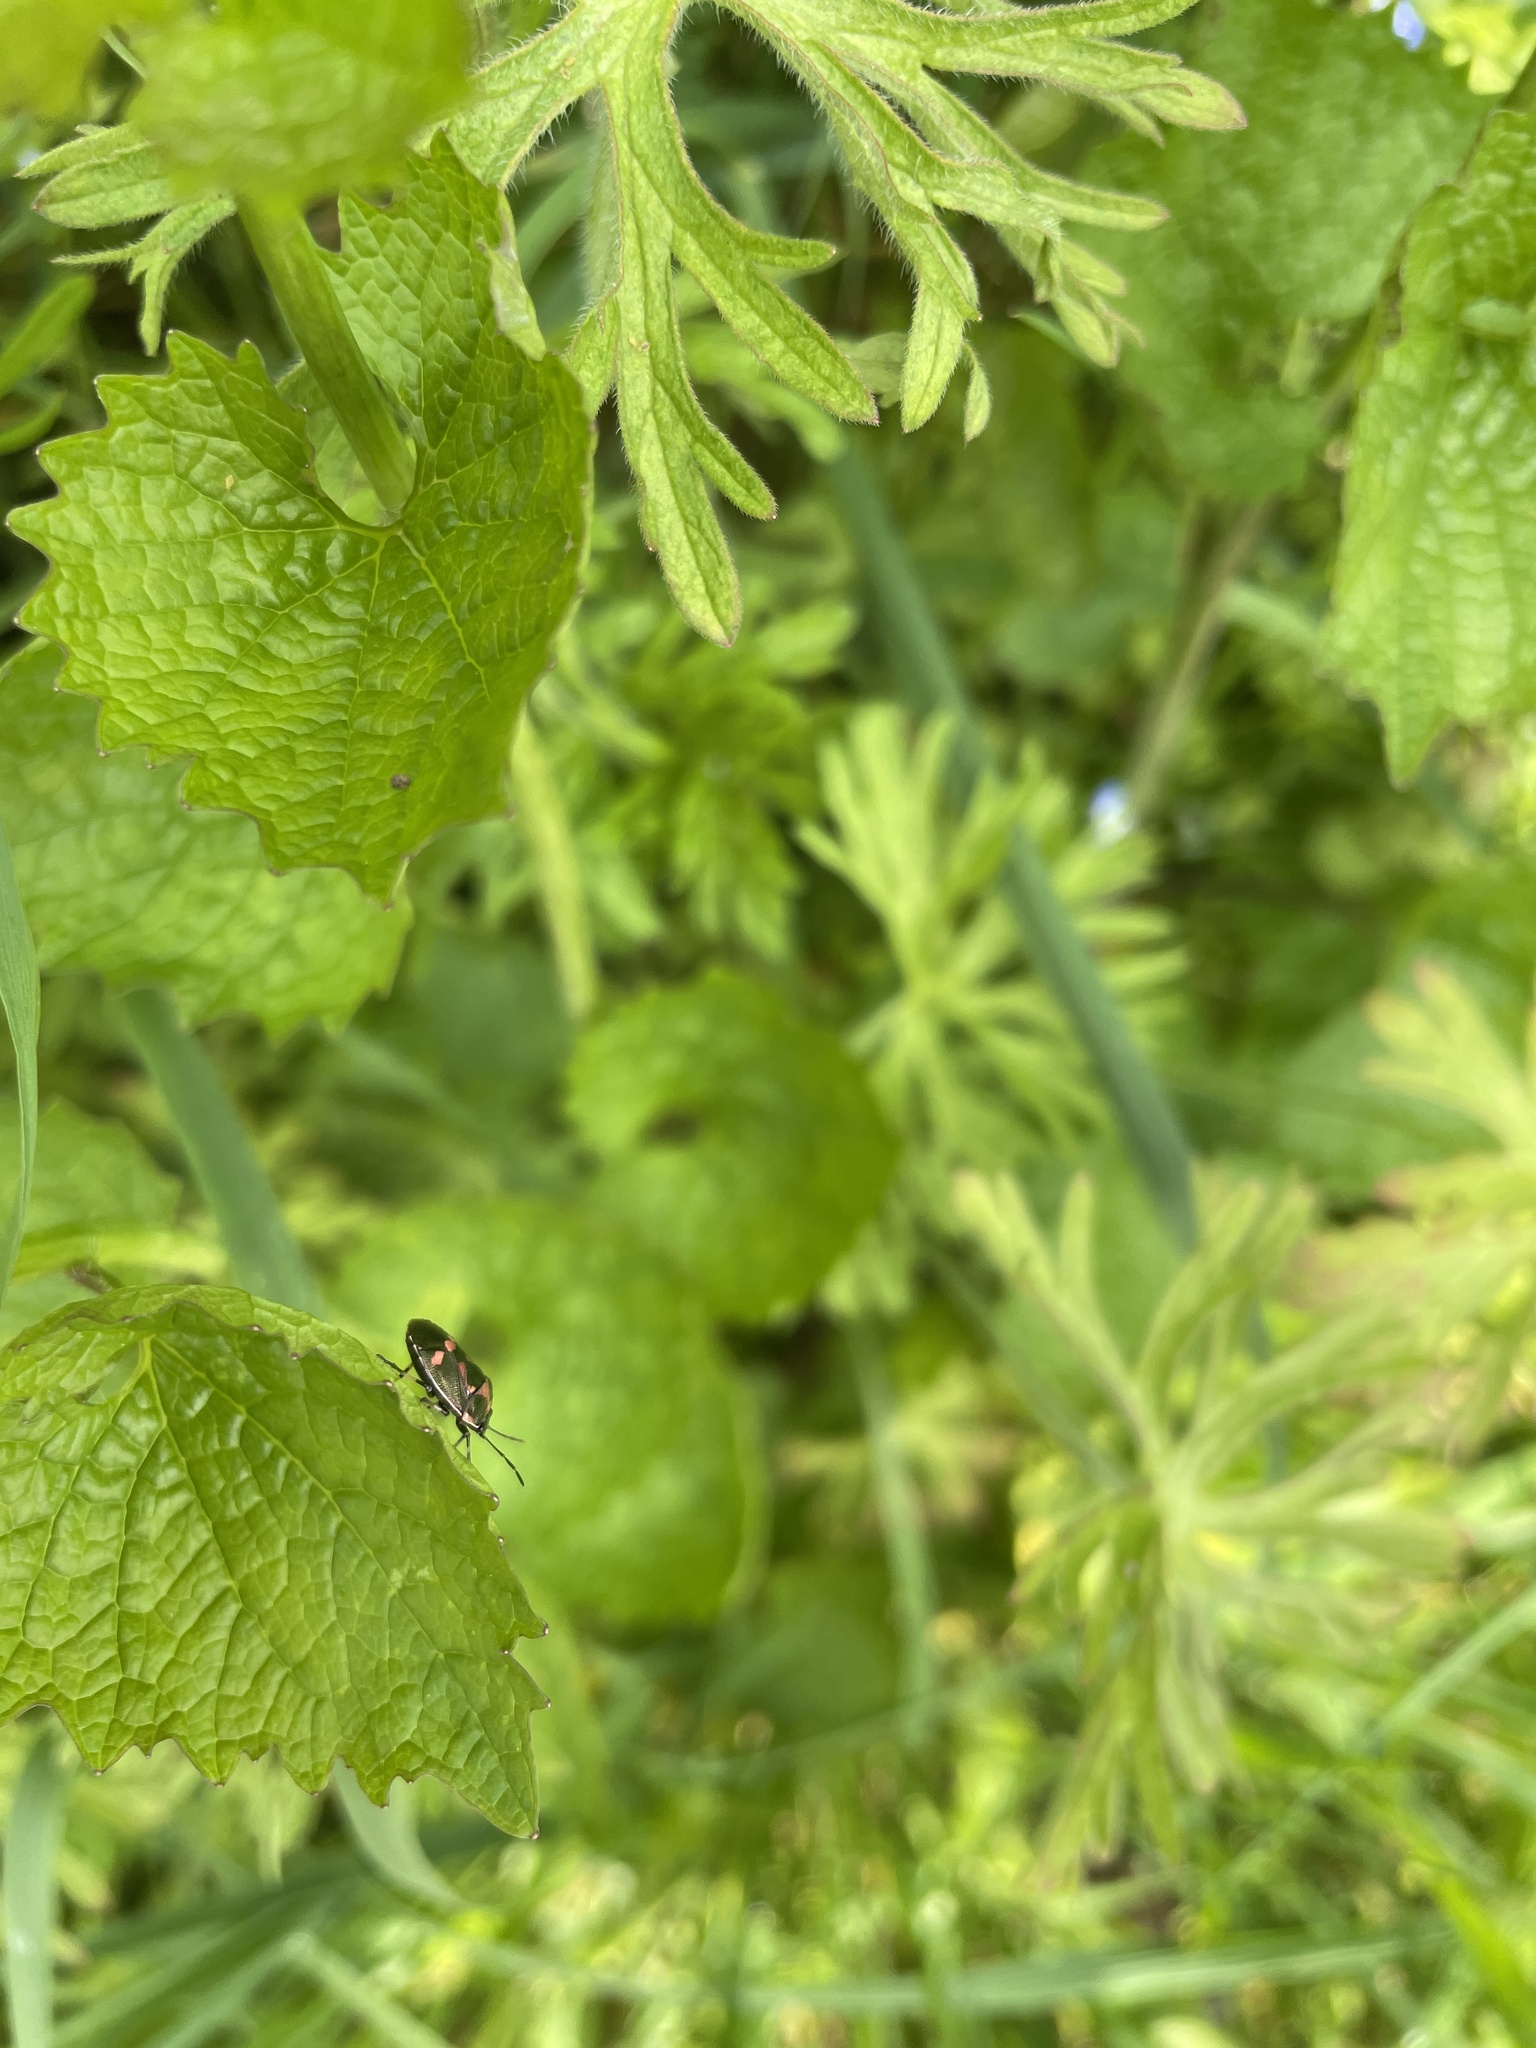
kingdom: Animalia
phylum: Arthropoda
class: Insecta
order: Hemiptera
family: Pentatomidae
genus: Eurydema
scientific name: Eurydema oleracea
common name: Cabbage bug
